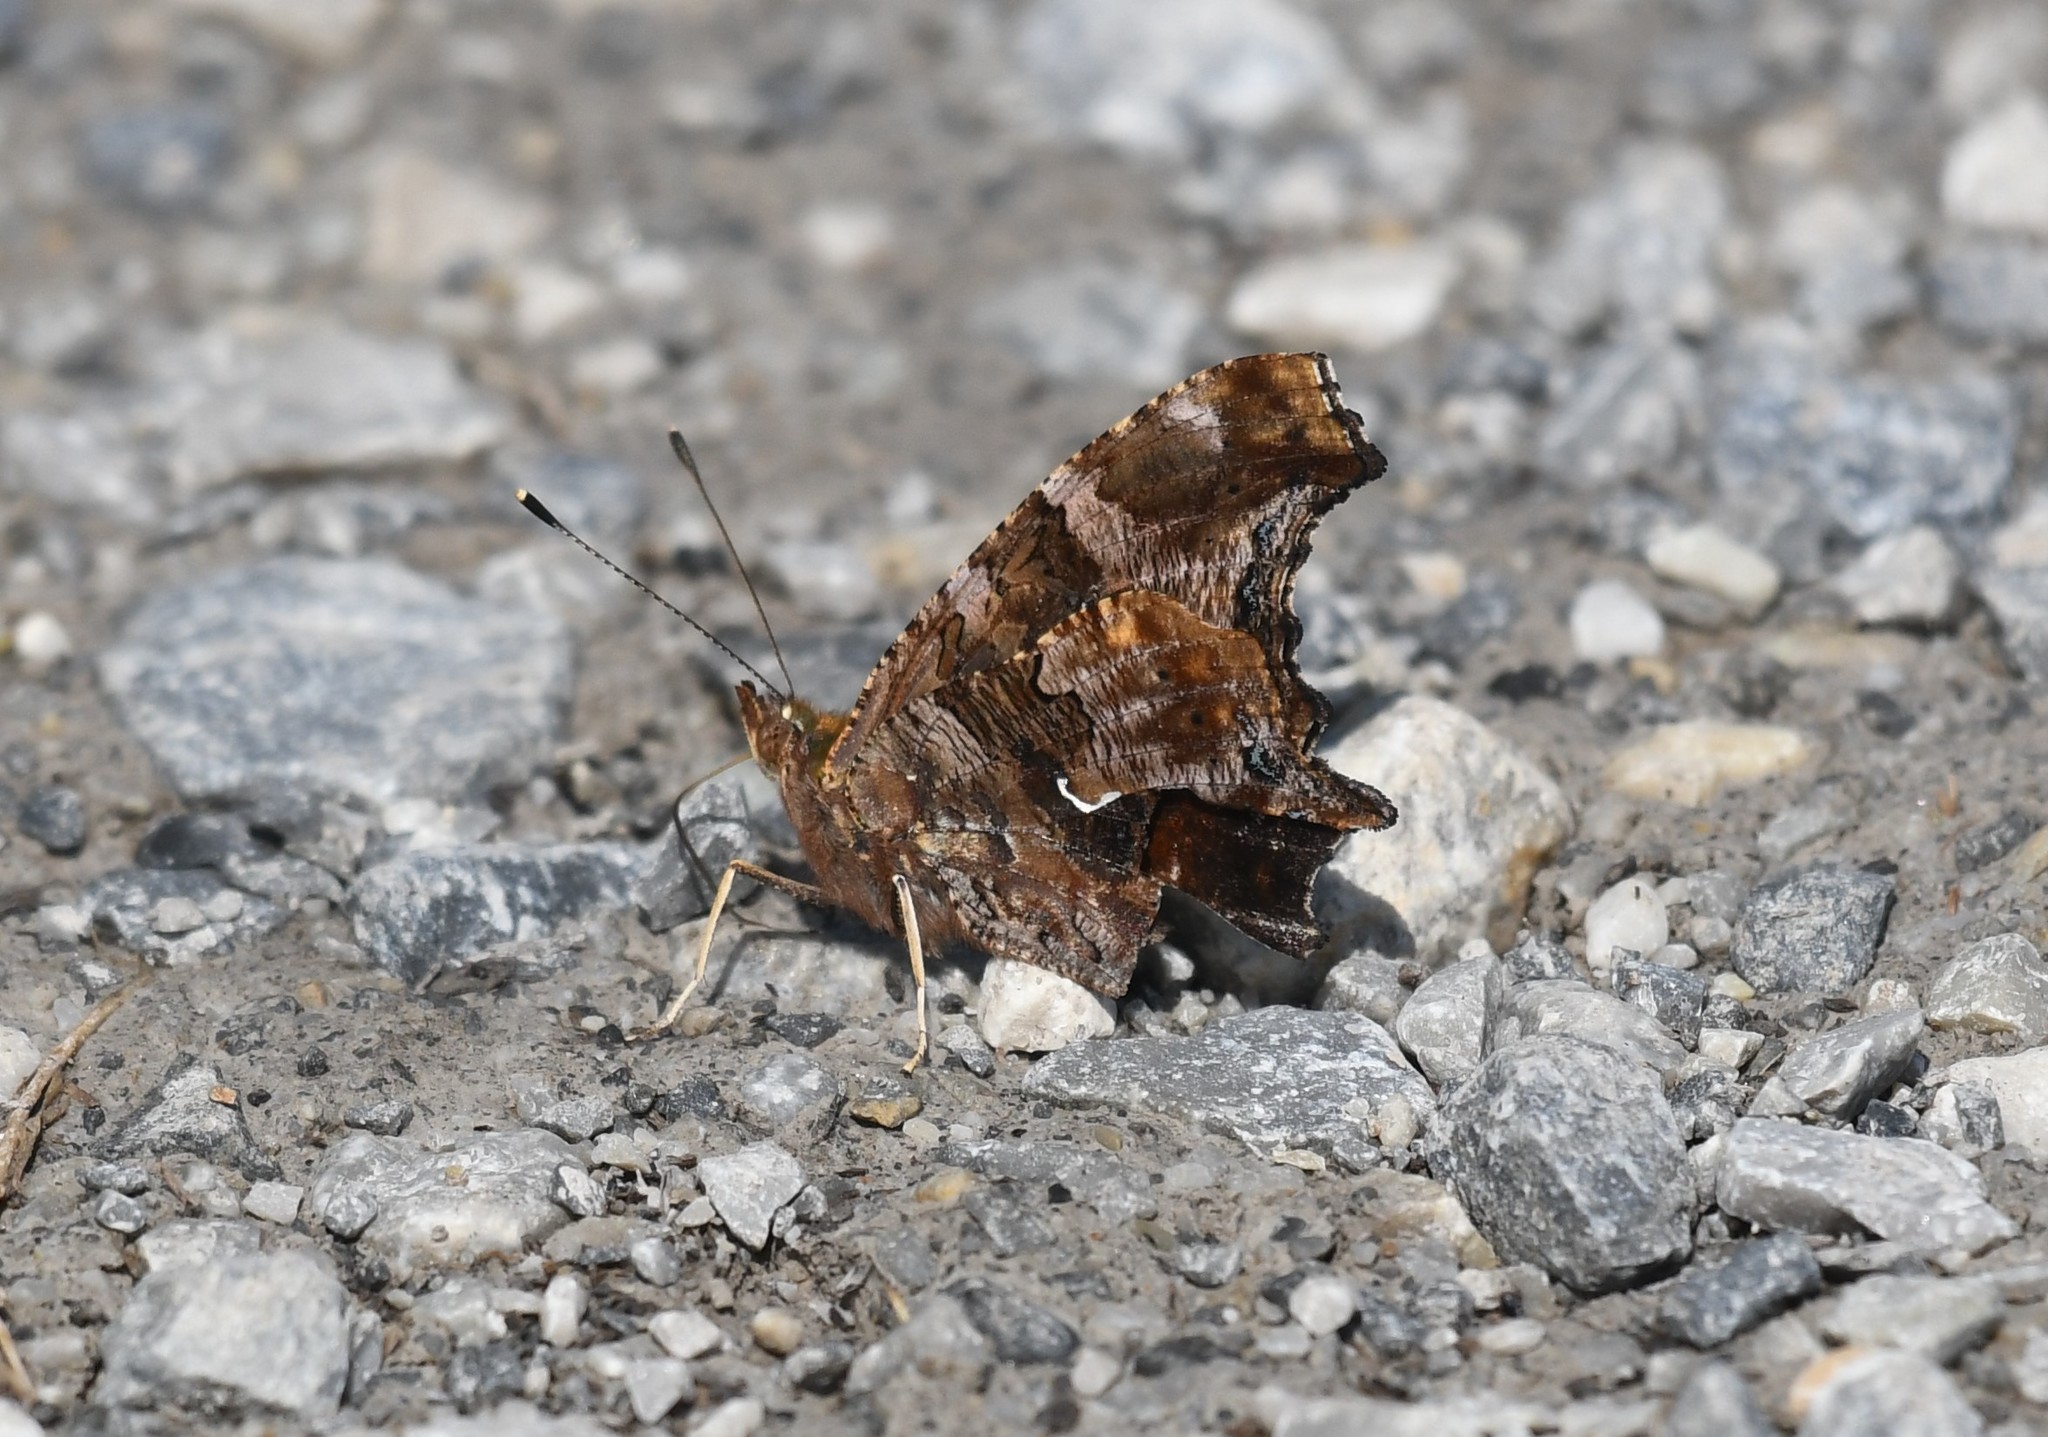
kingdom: Animalia
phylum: Arthropoda
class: Insecta
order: Lepidoptera
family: Nymphalidae
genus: Polygonia
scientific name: Polygonia comma
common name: Eastern comma
